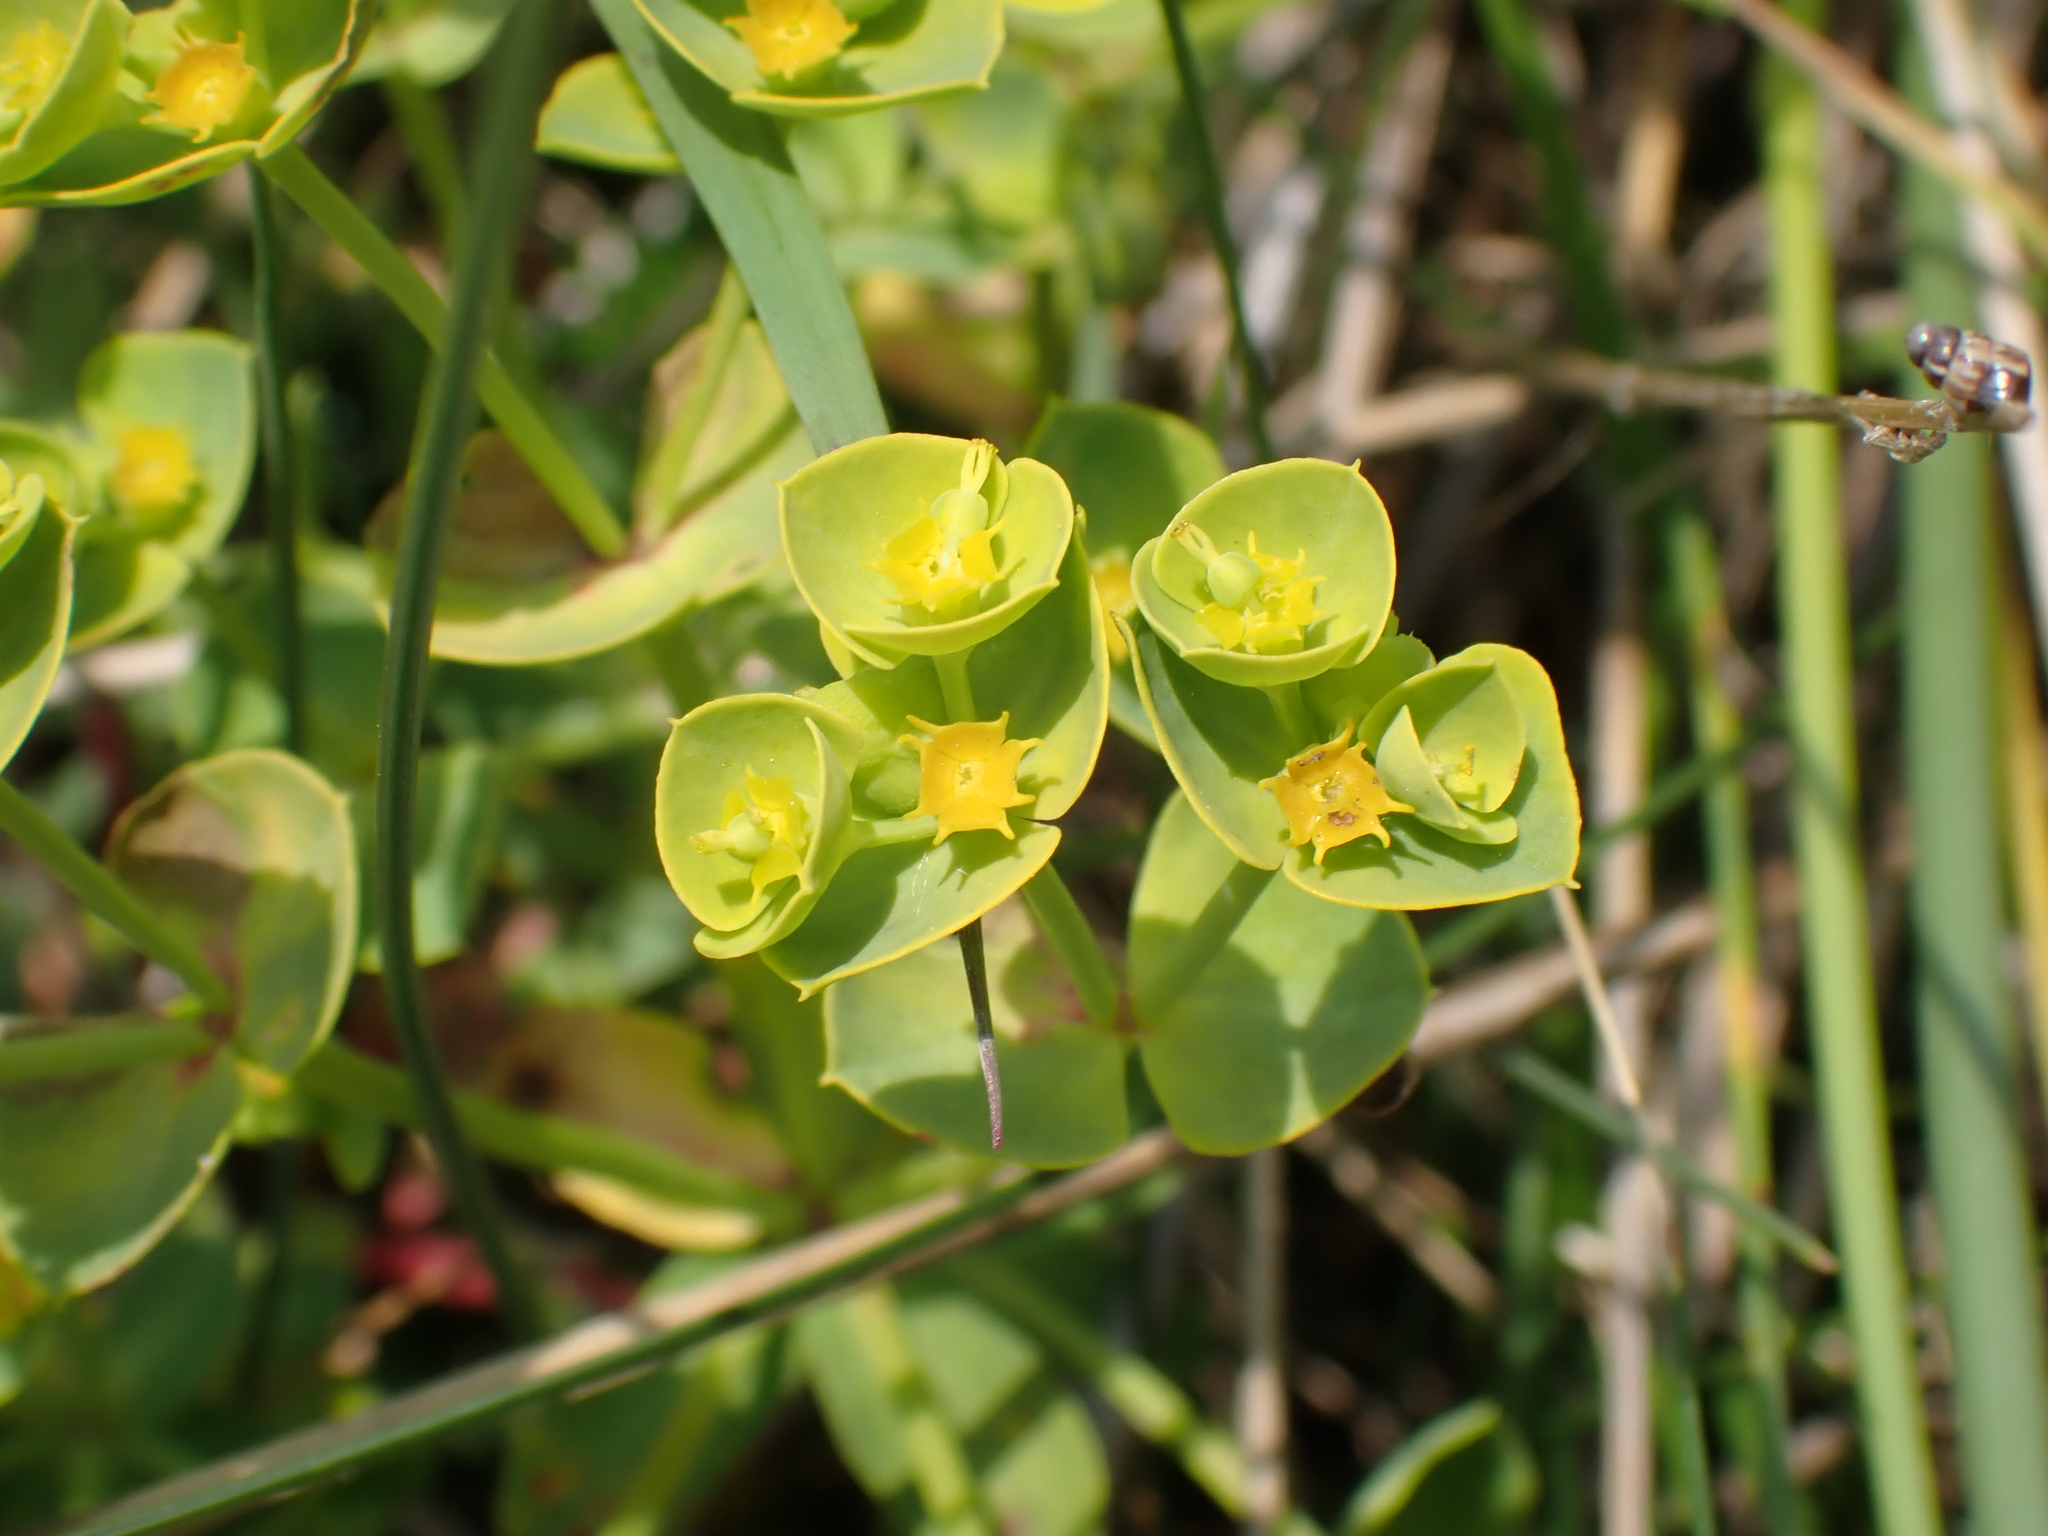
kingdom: Plantae
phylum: Tracheophyta
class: Magnoliopsida
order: Malpighiales
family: Euphorbiaceae
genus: Euphorbia
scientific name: Euphorbia portlandica
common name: Portland spurge
